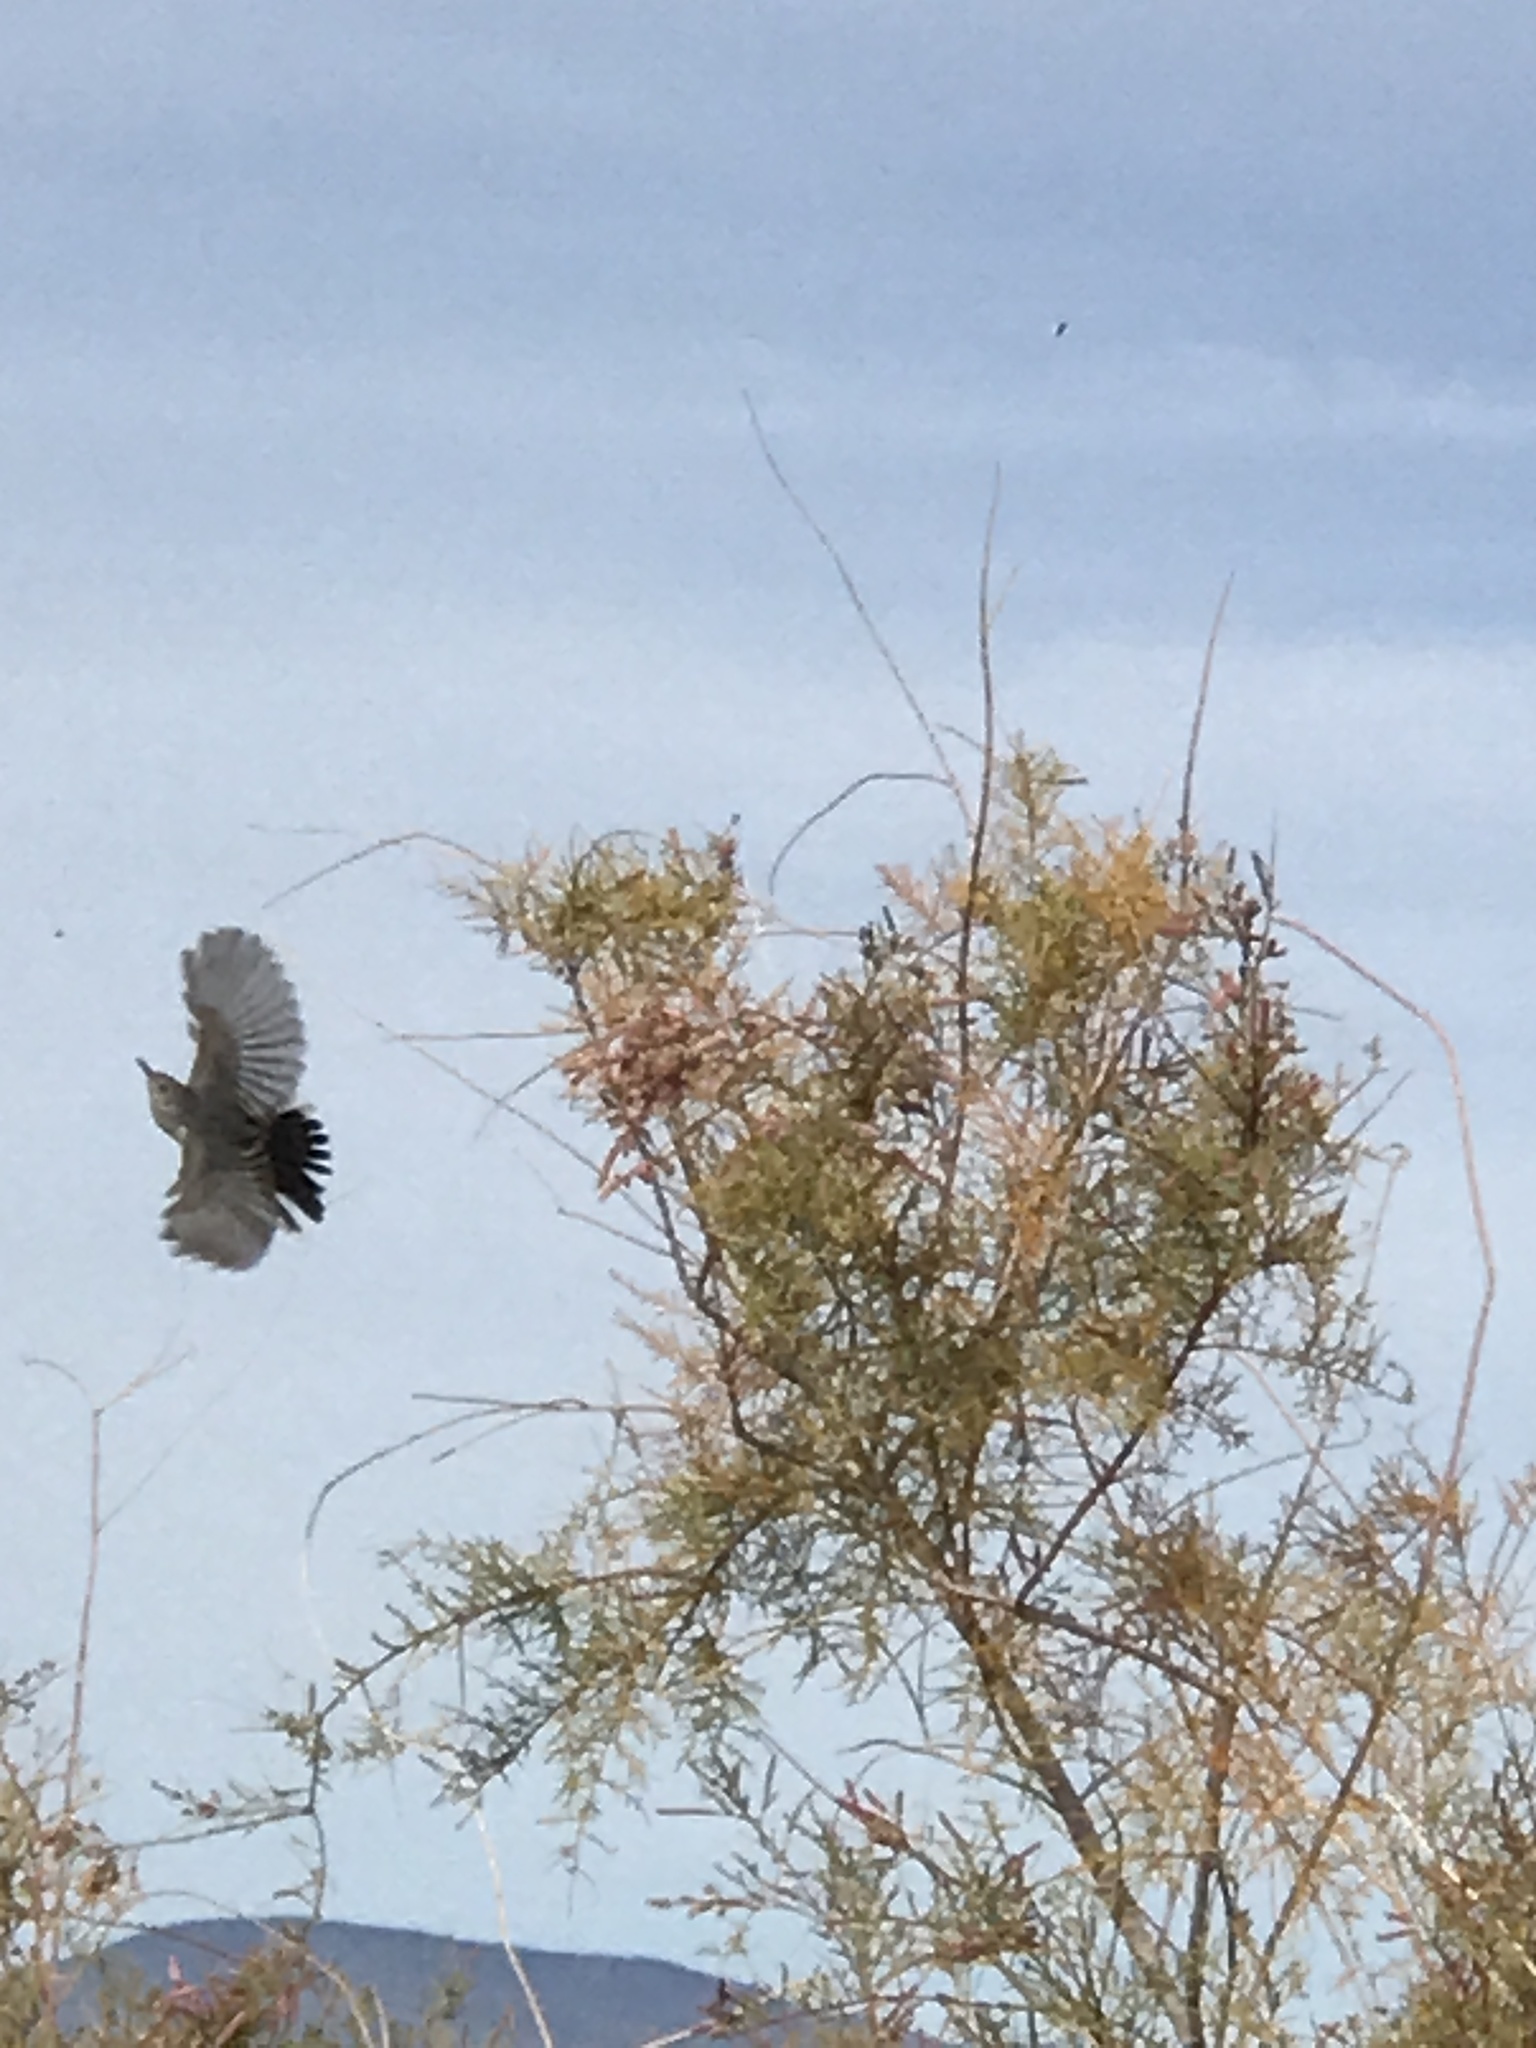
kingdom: Animalia
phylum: Chordata
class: Aves
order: Passeriformes
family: Polioptilidae
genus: Polioptila
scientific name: Polioptila melanura
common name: Black-tailed gnatcatcher
